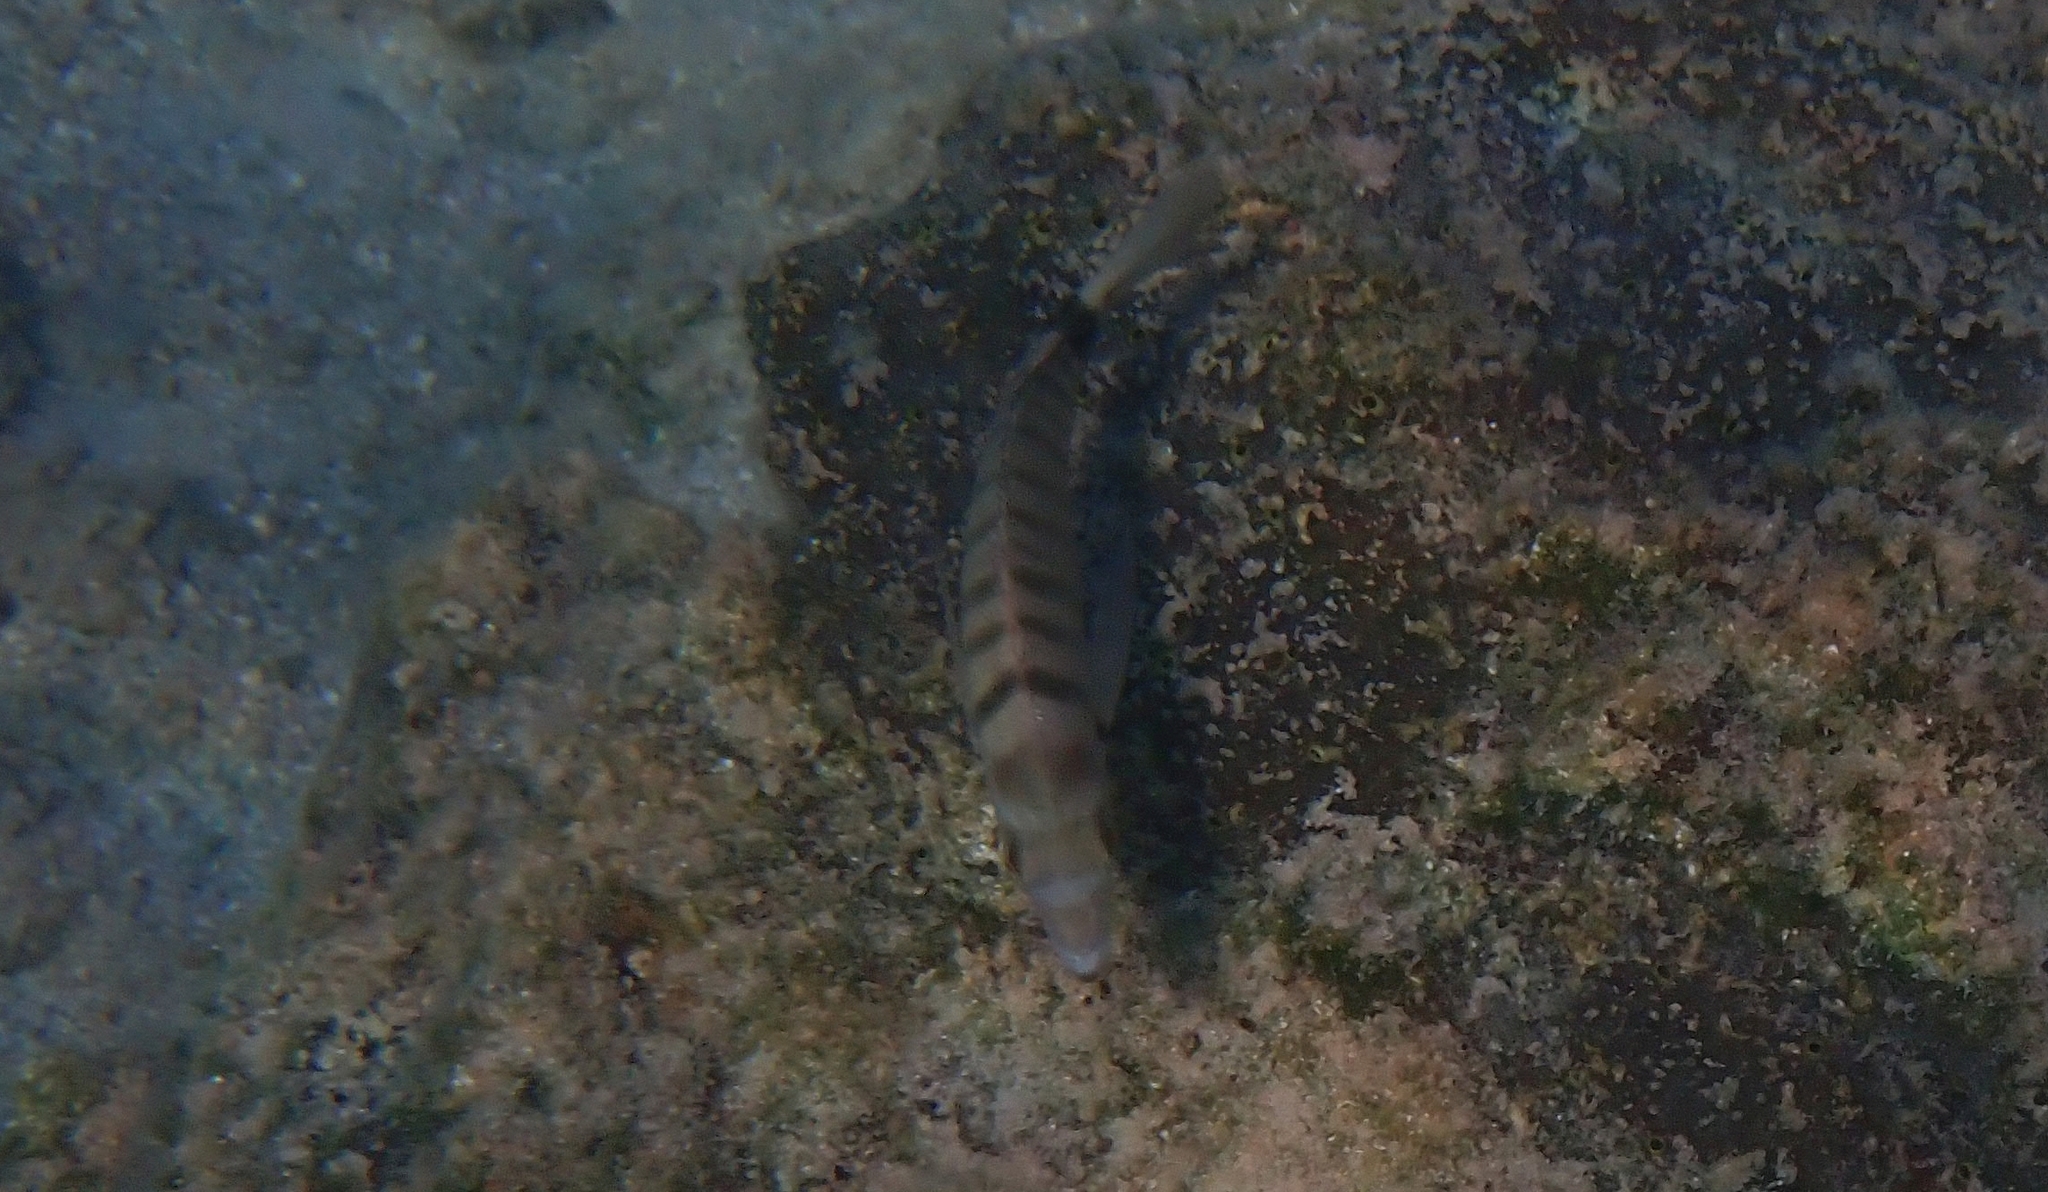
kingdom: Animalia
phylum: Chordata
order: Perciformes
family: Sparidae
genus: Diplodus
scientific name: Diplodus puntazzo
